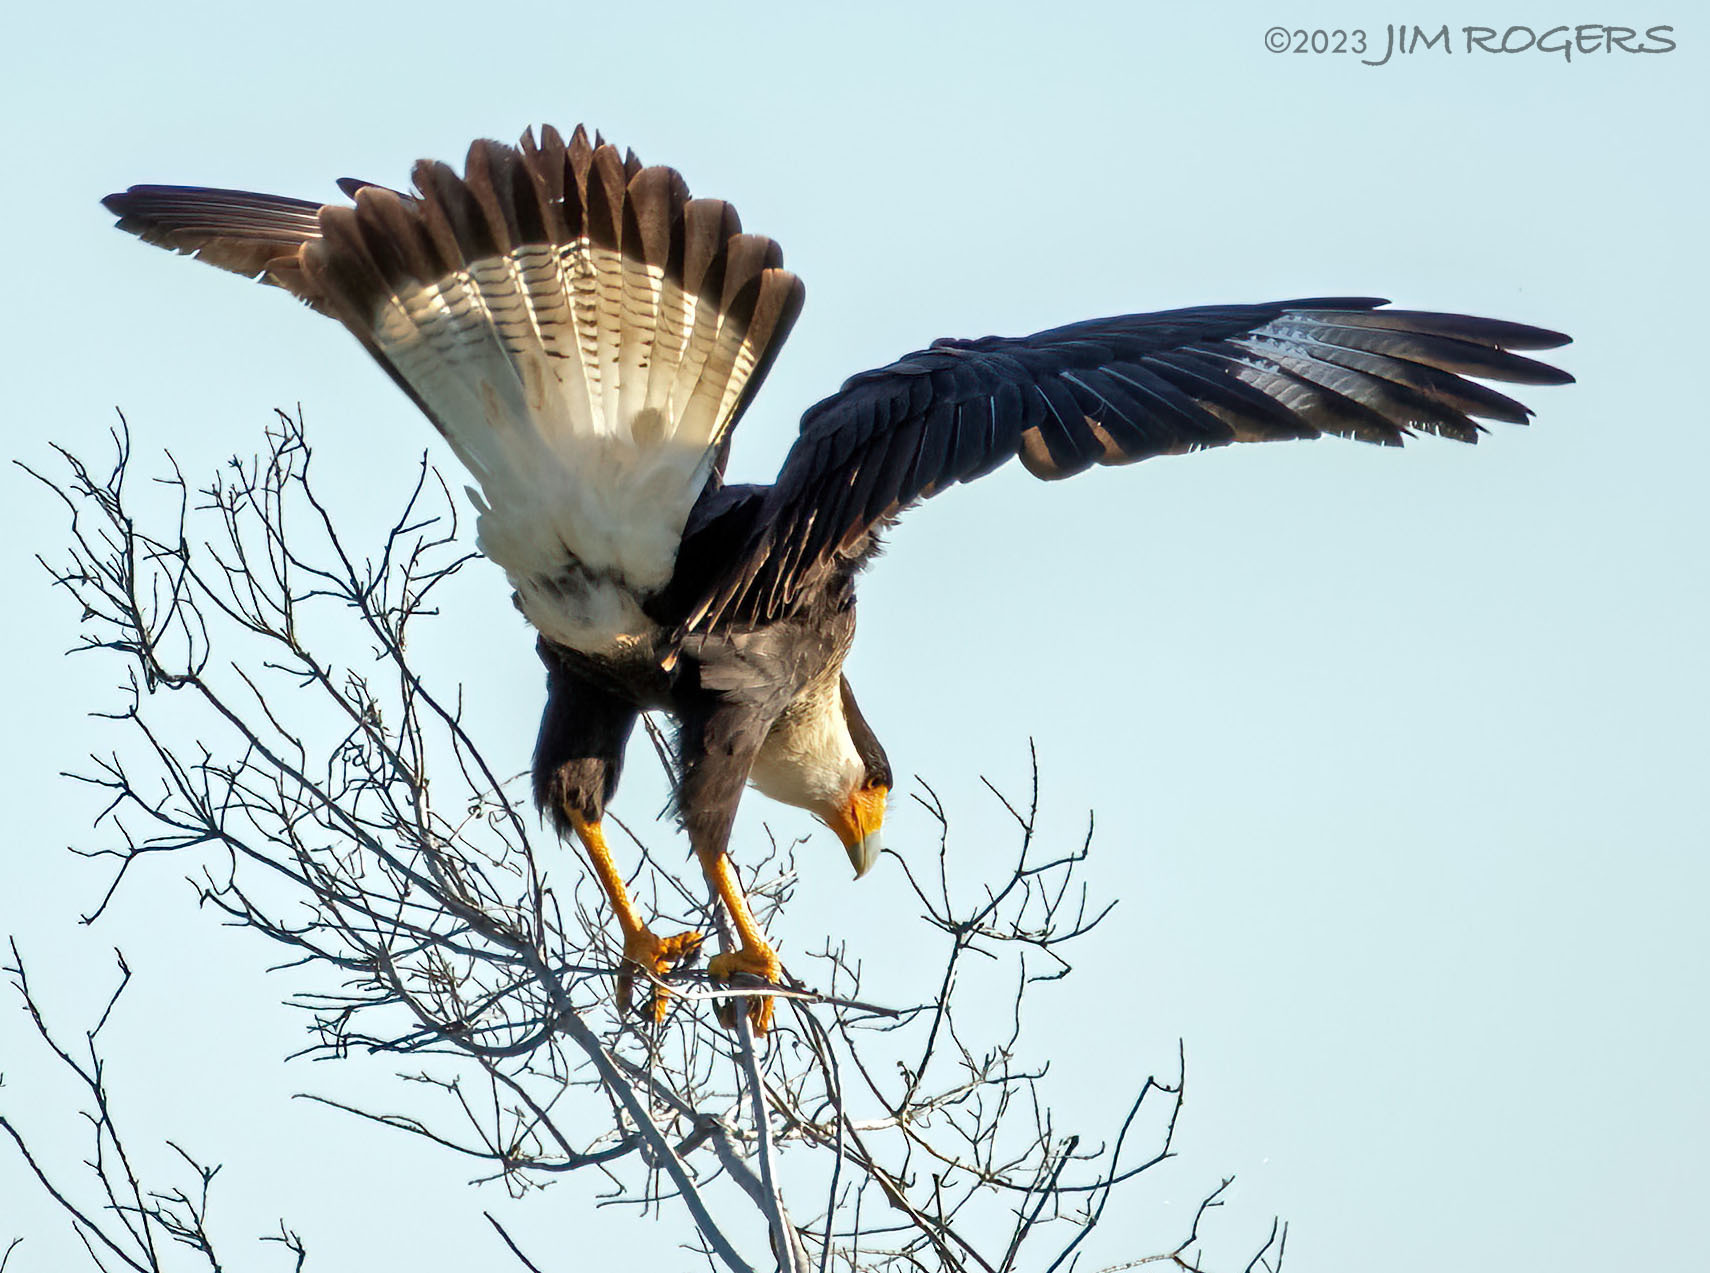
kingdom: Animalia
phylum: Chordata
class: Aves
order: Falconiformes
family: Falconidae
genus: Caracara
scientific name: Caracara plancus
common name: Southern caracara
